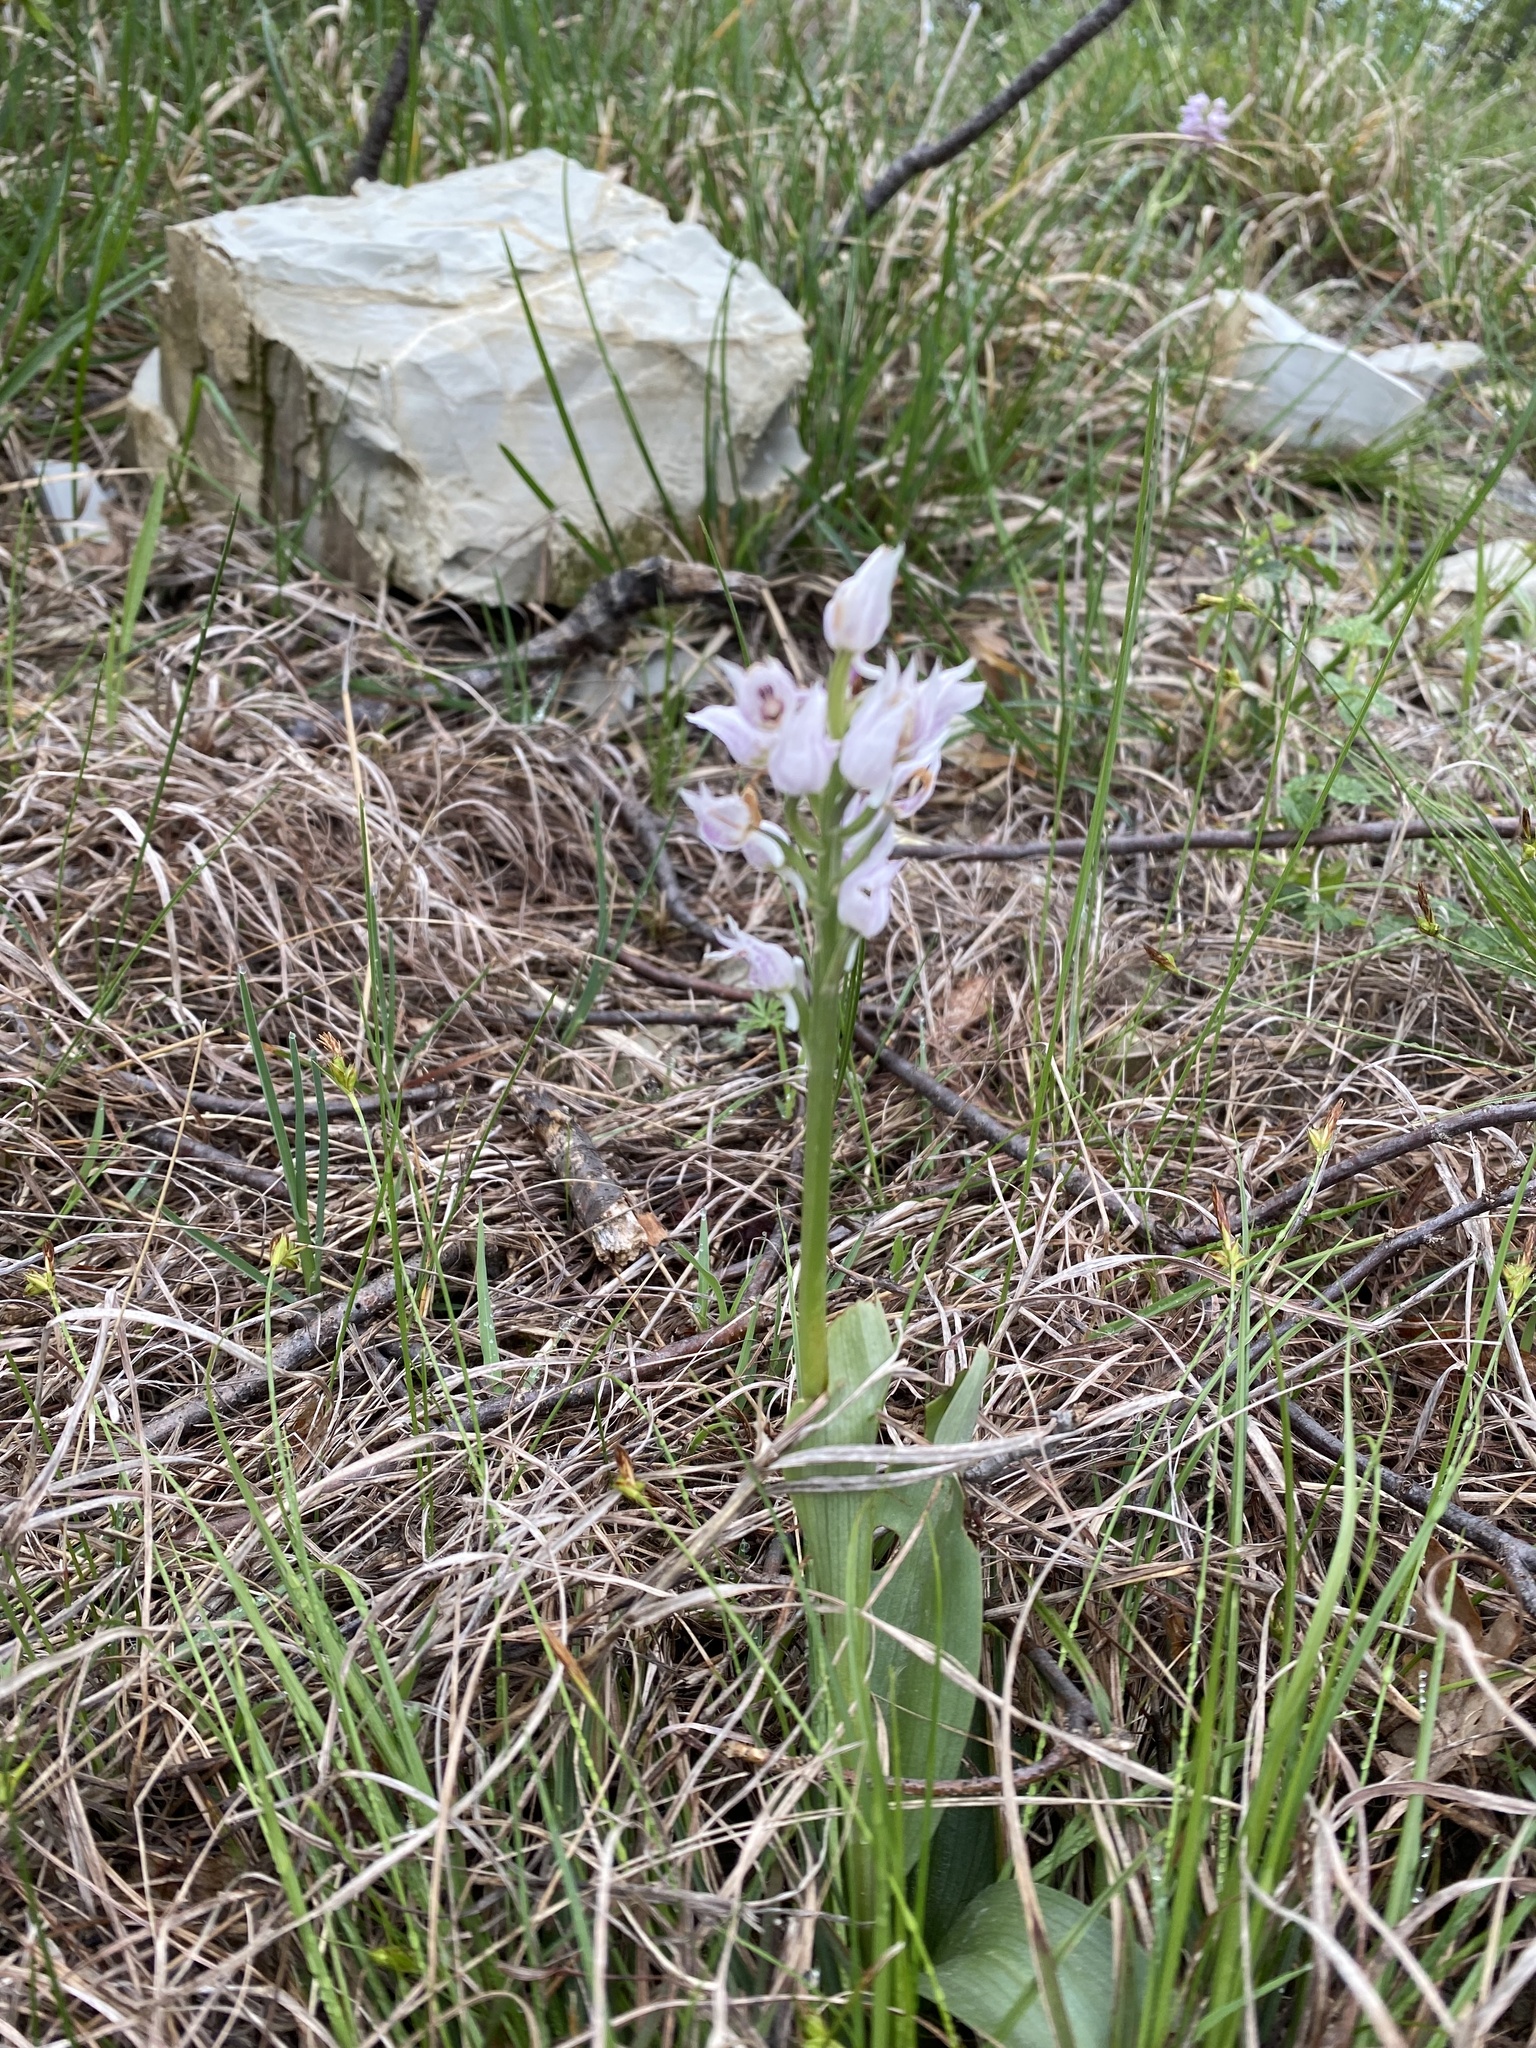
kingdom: Plantae
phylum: Tracheophyta
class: Liliopsida
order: Asparagales
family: Orchidaceae
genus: Orchis
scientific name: Orchis simia
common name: Monkey orchid
